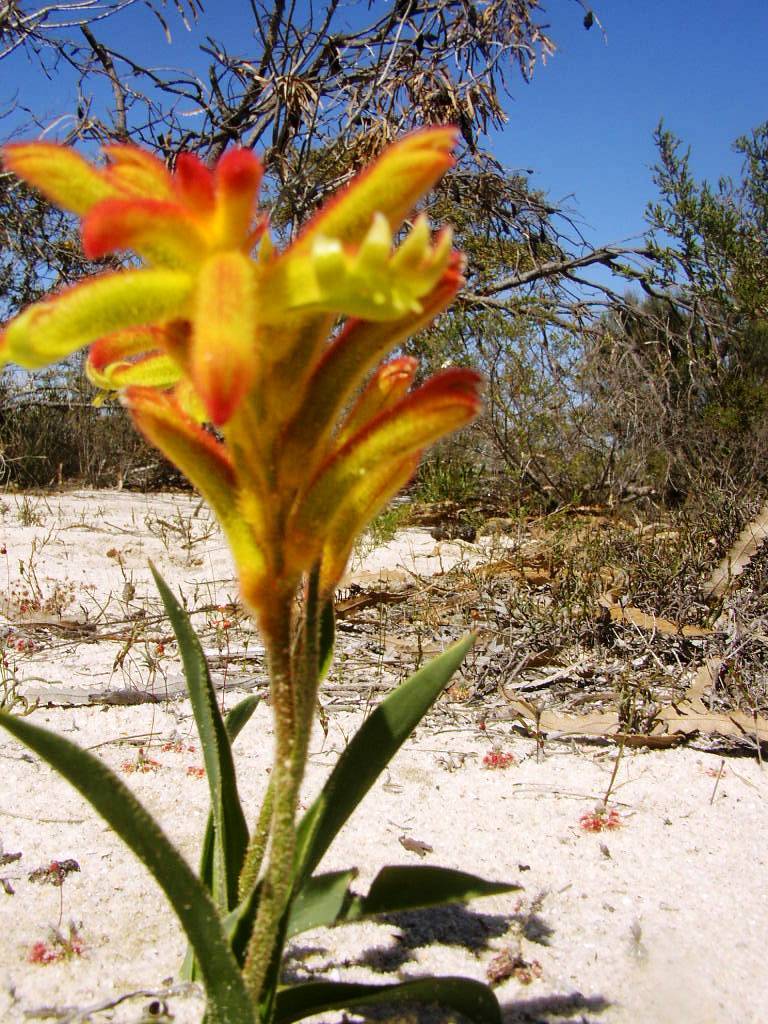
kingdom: Plantae
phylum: Tracheophyta
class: Liliopsida
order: Commelinales
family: Haemodoraceae
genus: Anigozanthos
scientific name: Anigozanthos humilis
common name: Cat's-paw
